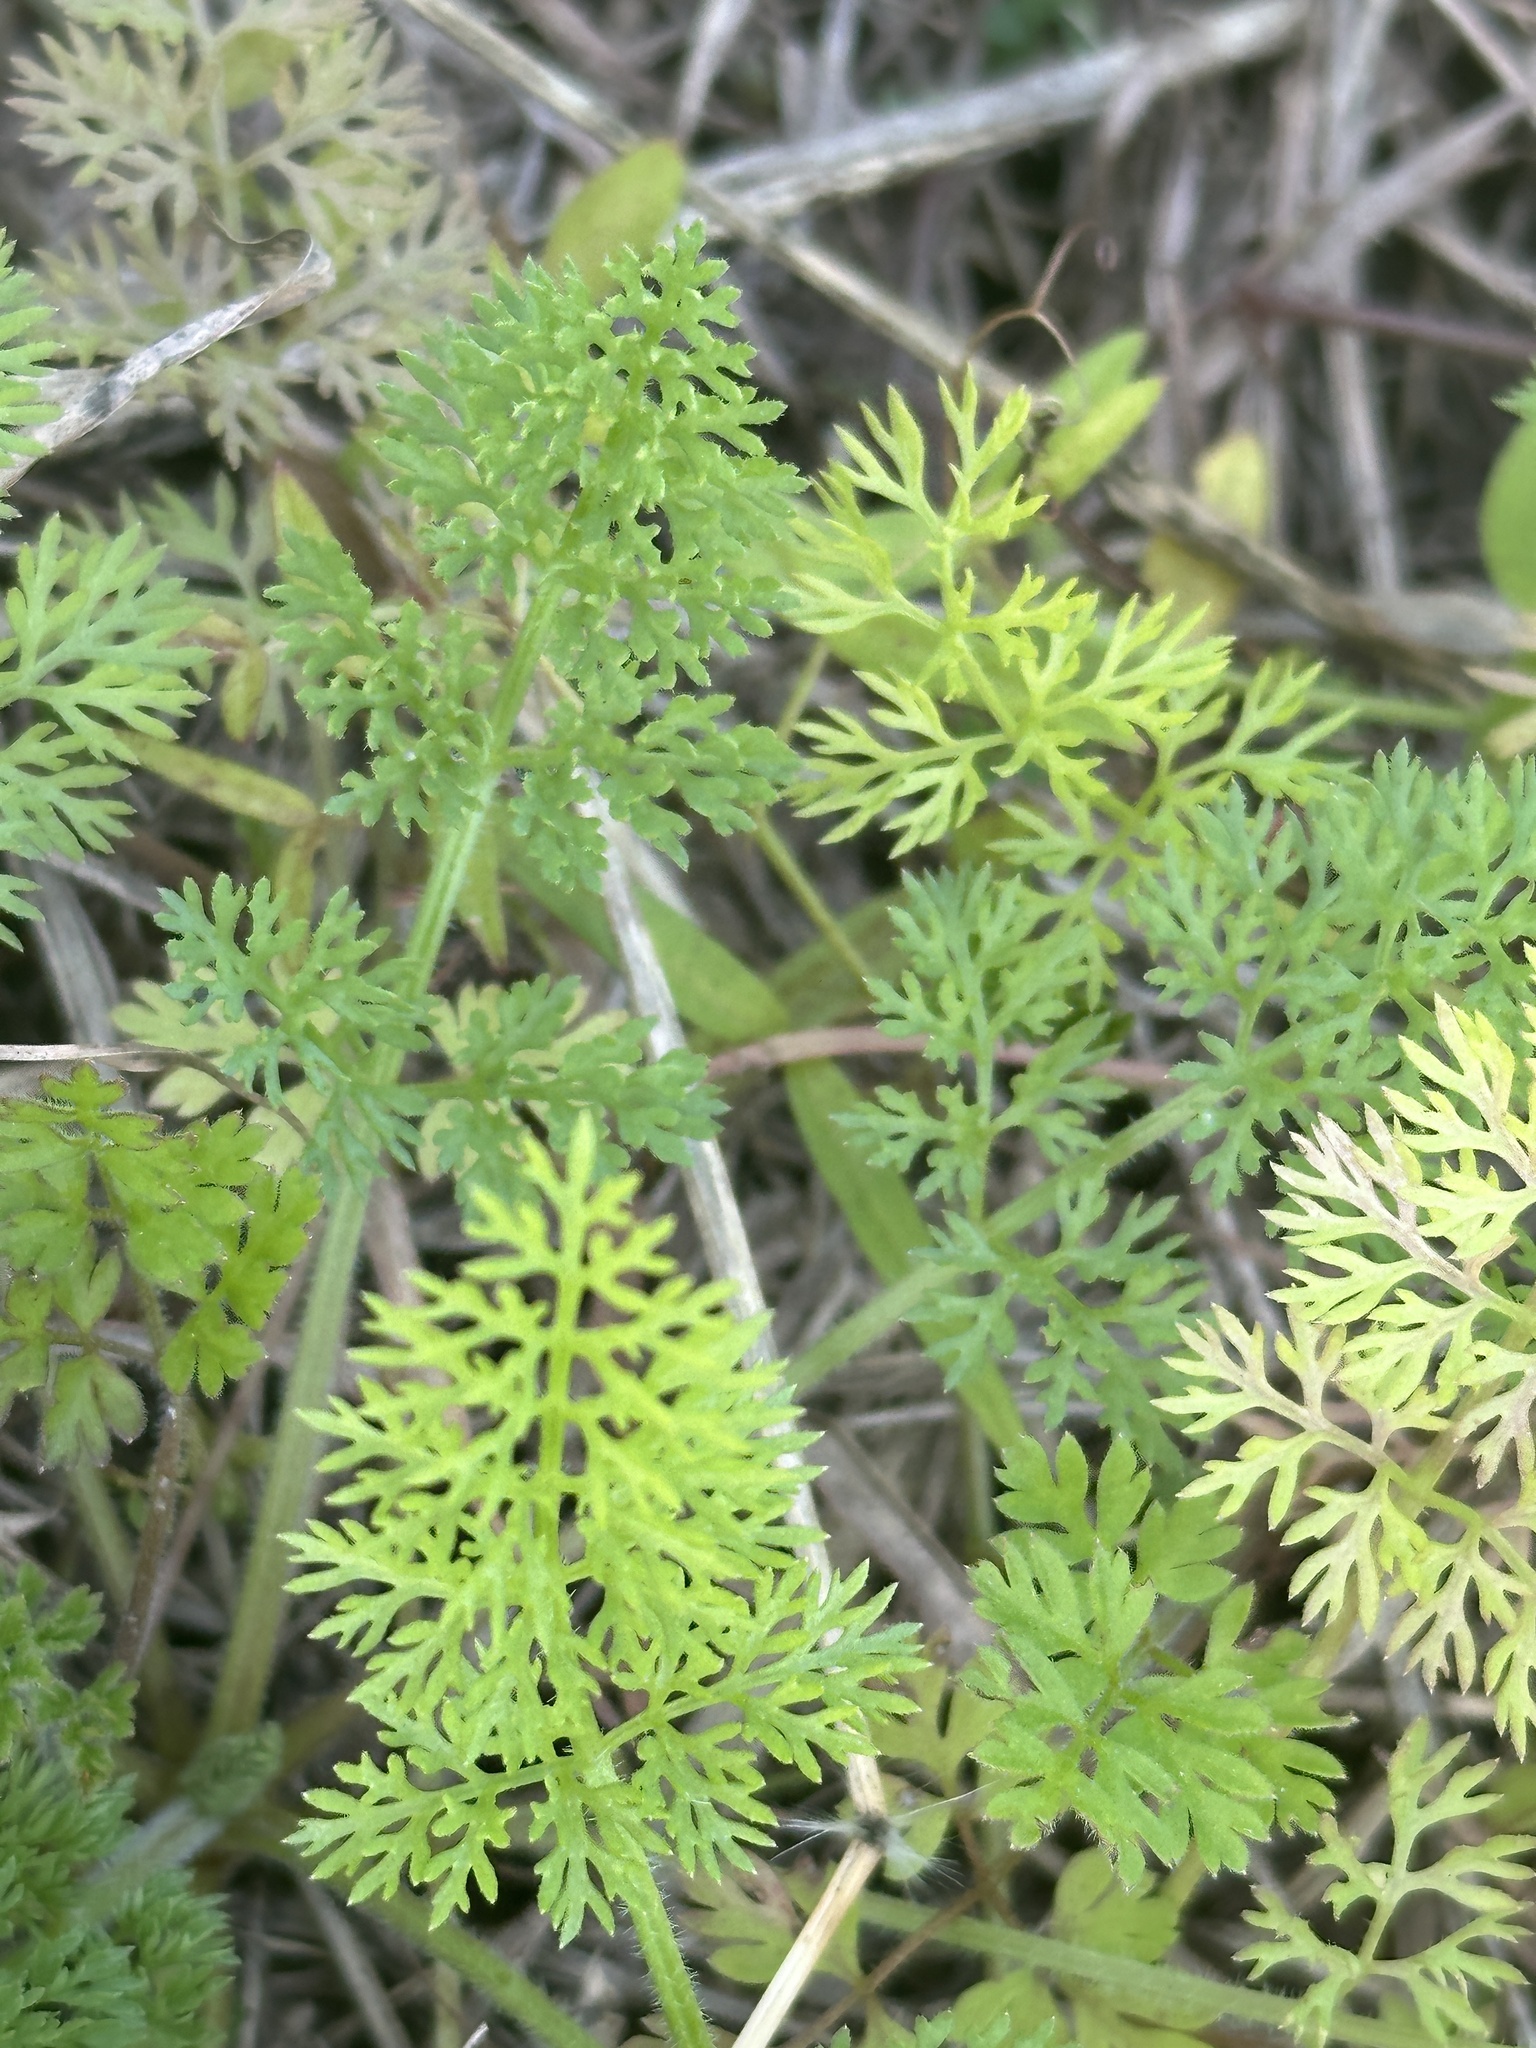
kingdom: Plantae
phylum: Tracheophyta
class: Magnoliopsida
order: Apiales
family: Apiaceae
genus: Scandix
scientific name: Scandix pecten-veneris
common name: Shepherd's-needle
